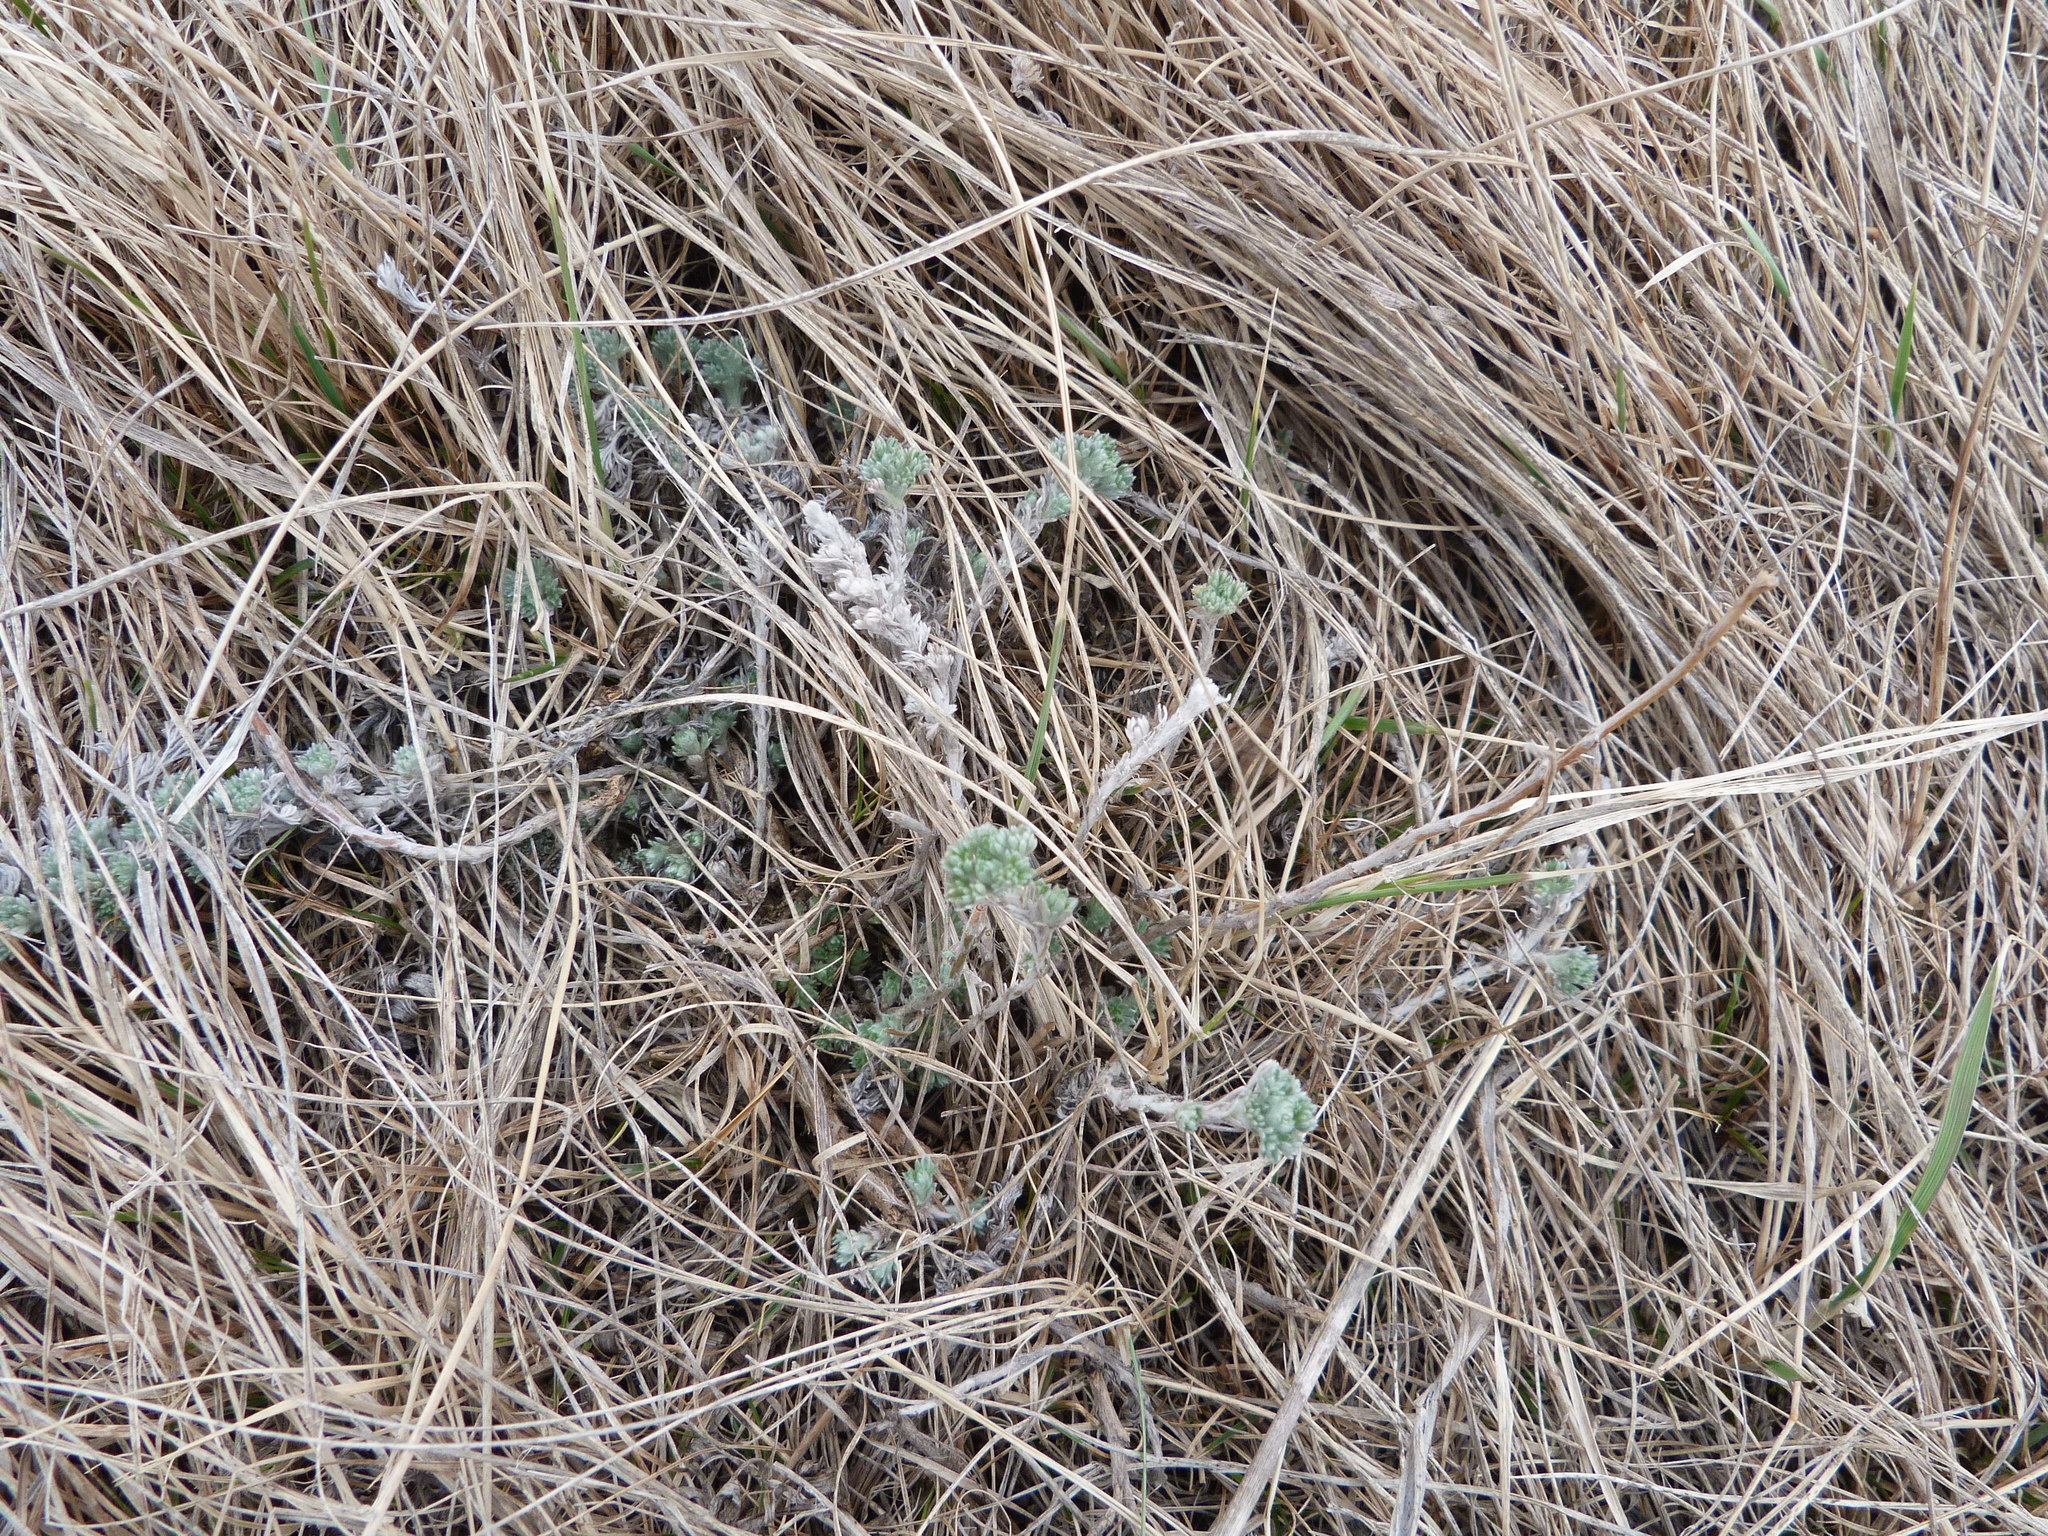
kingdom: Plantae
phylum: Tracheophyta
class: Magnoliopsida
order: Asterales
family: Asteraceae
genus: Artemisia
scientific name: Artemisia frigida
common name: Prairie sagewort
